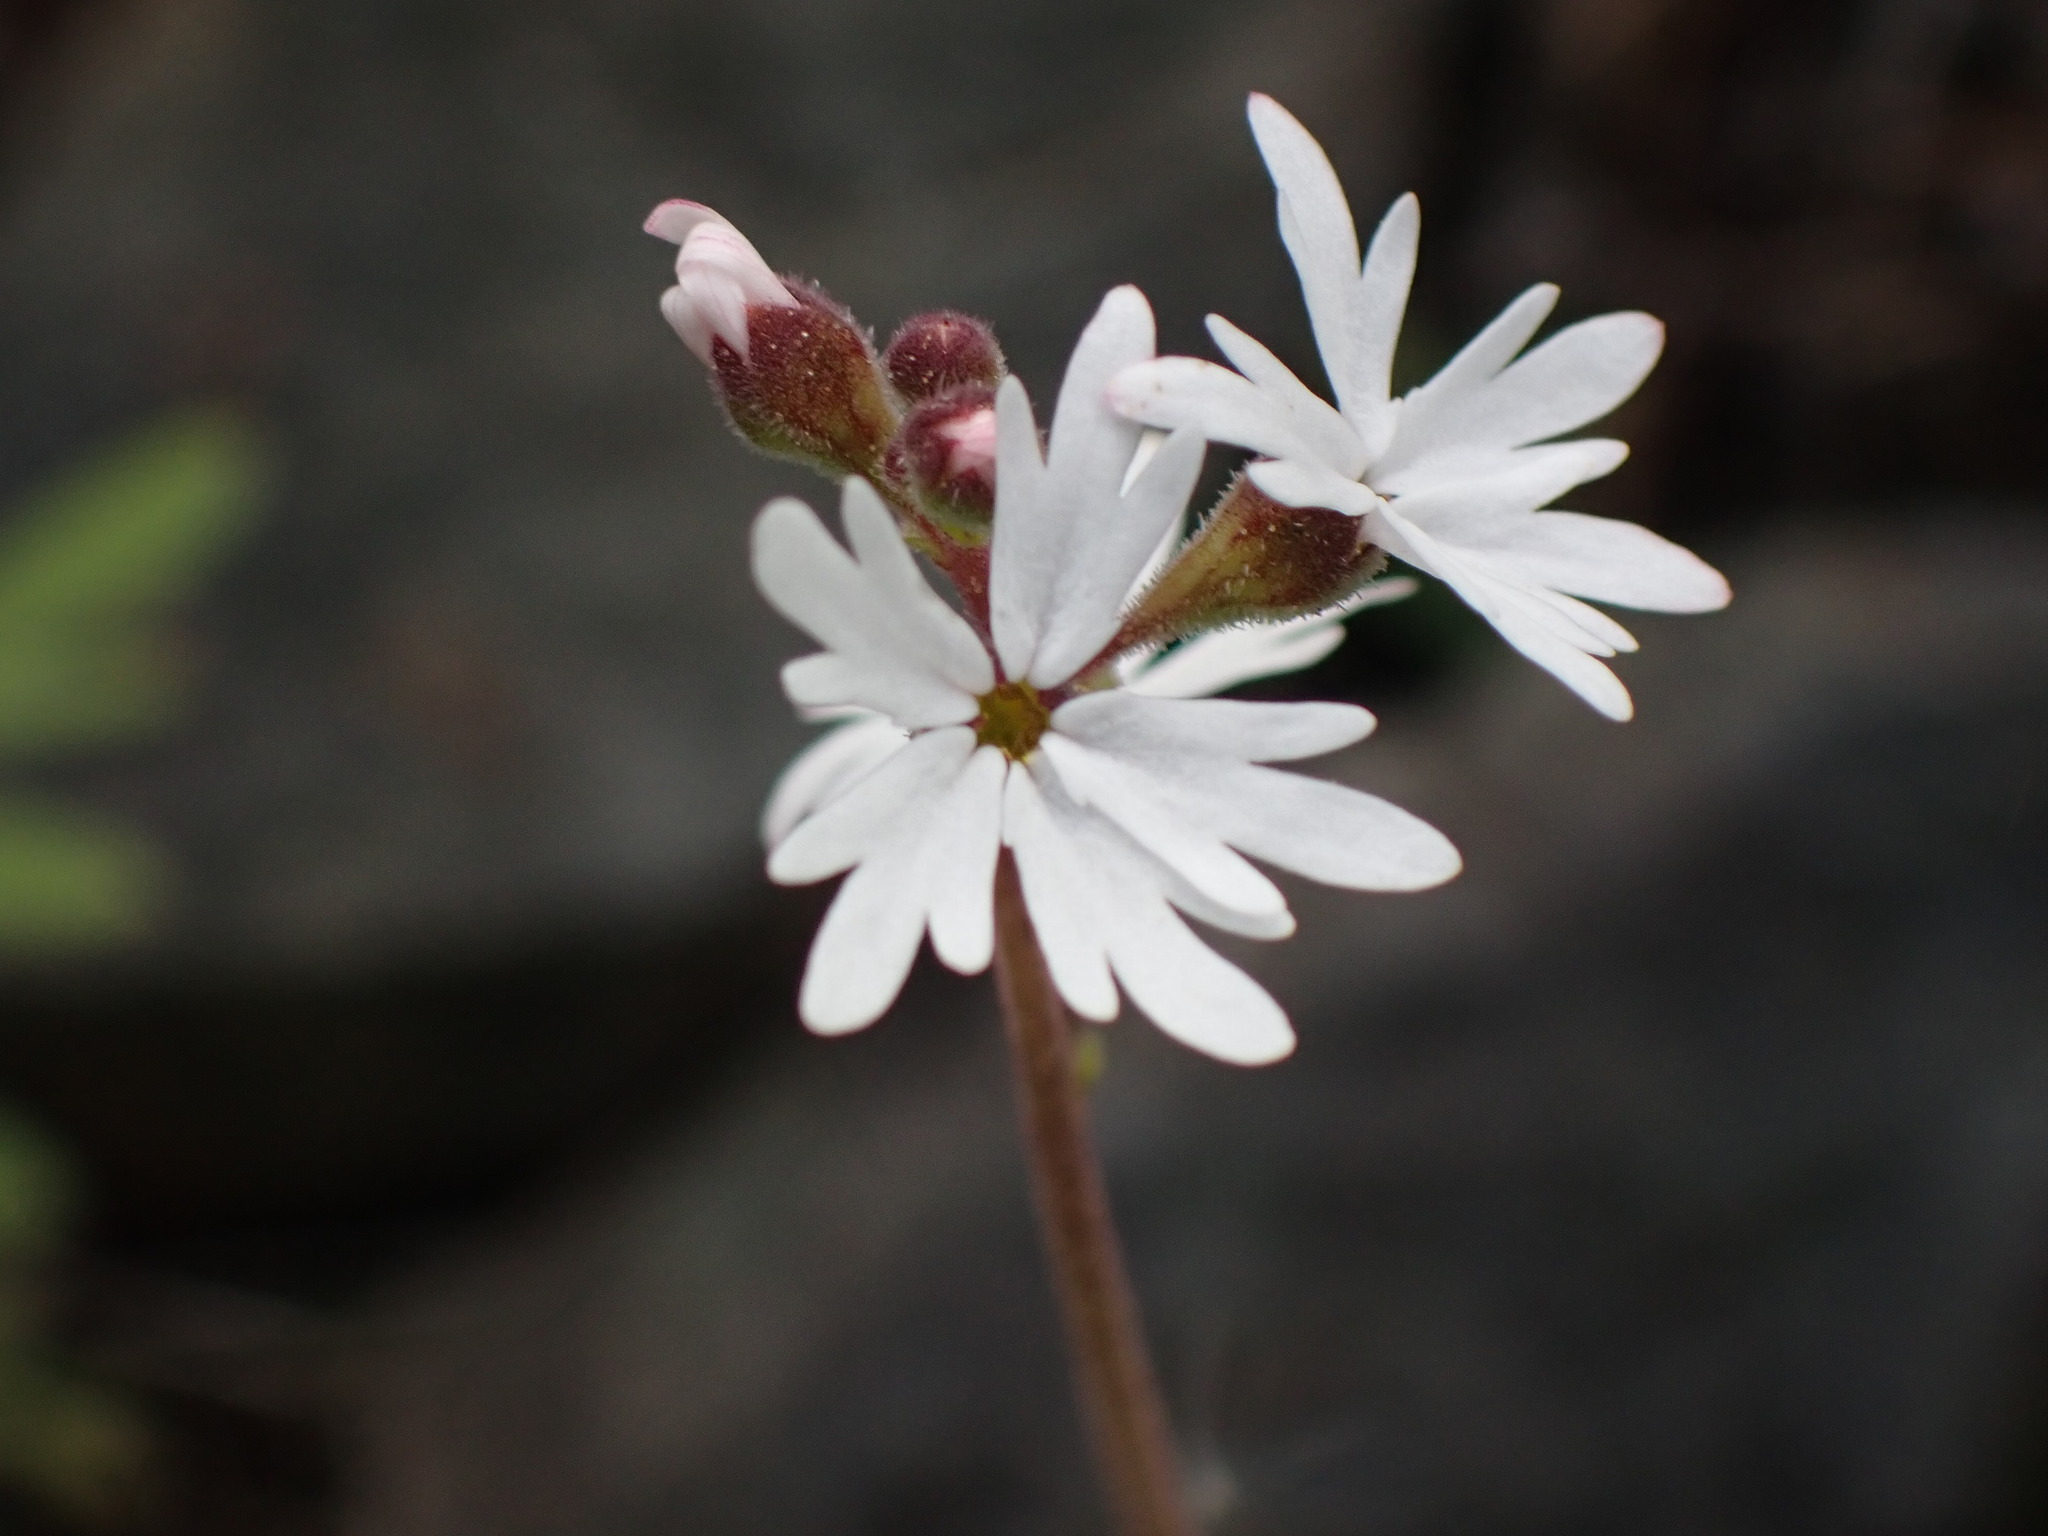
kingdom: Plantae
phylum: Tracheophyta
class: Magnoliopsida
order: Saxifragales
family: Saxifragaceae
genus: Lithophragma
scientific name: Lithophragma parviflorum
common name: Small-flowered fringe-cup
